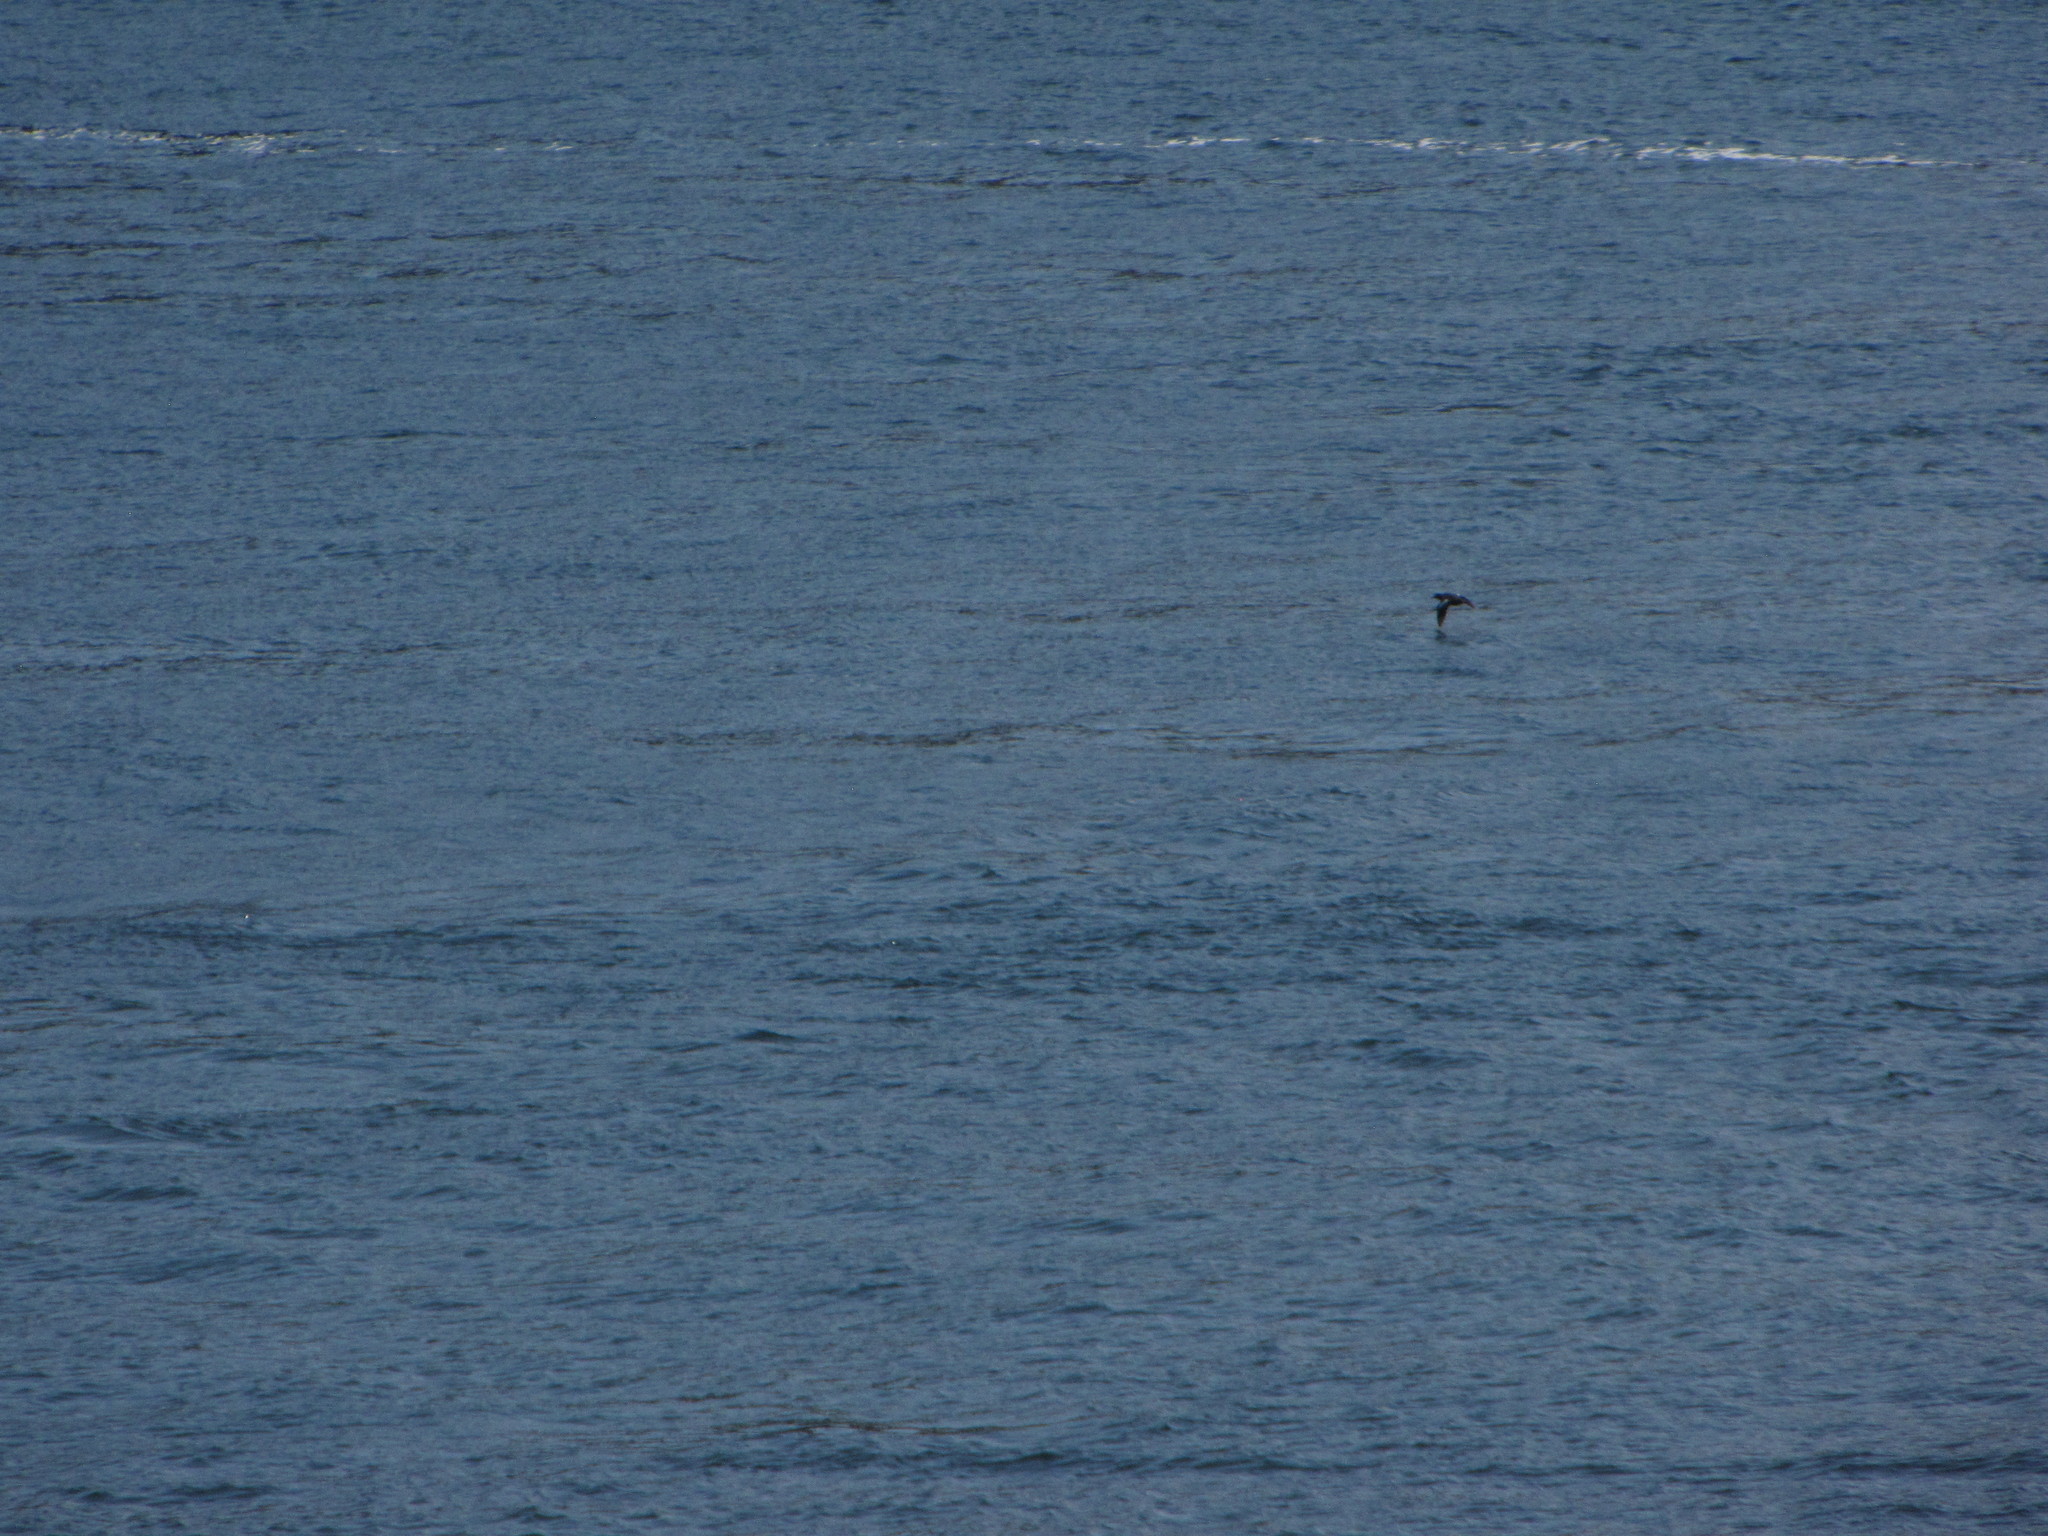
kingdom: Animalia
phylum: Chordata
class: Aves
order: Charadriiformes
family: Alcidae
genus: Cepphus
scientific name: Cepphus columba
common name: Pigeon guillemot
